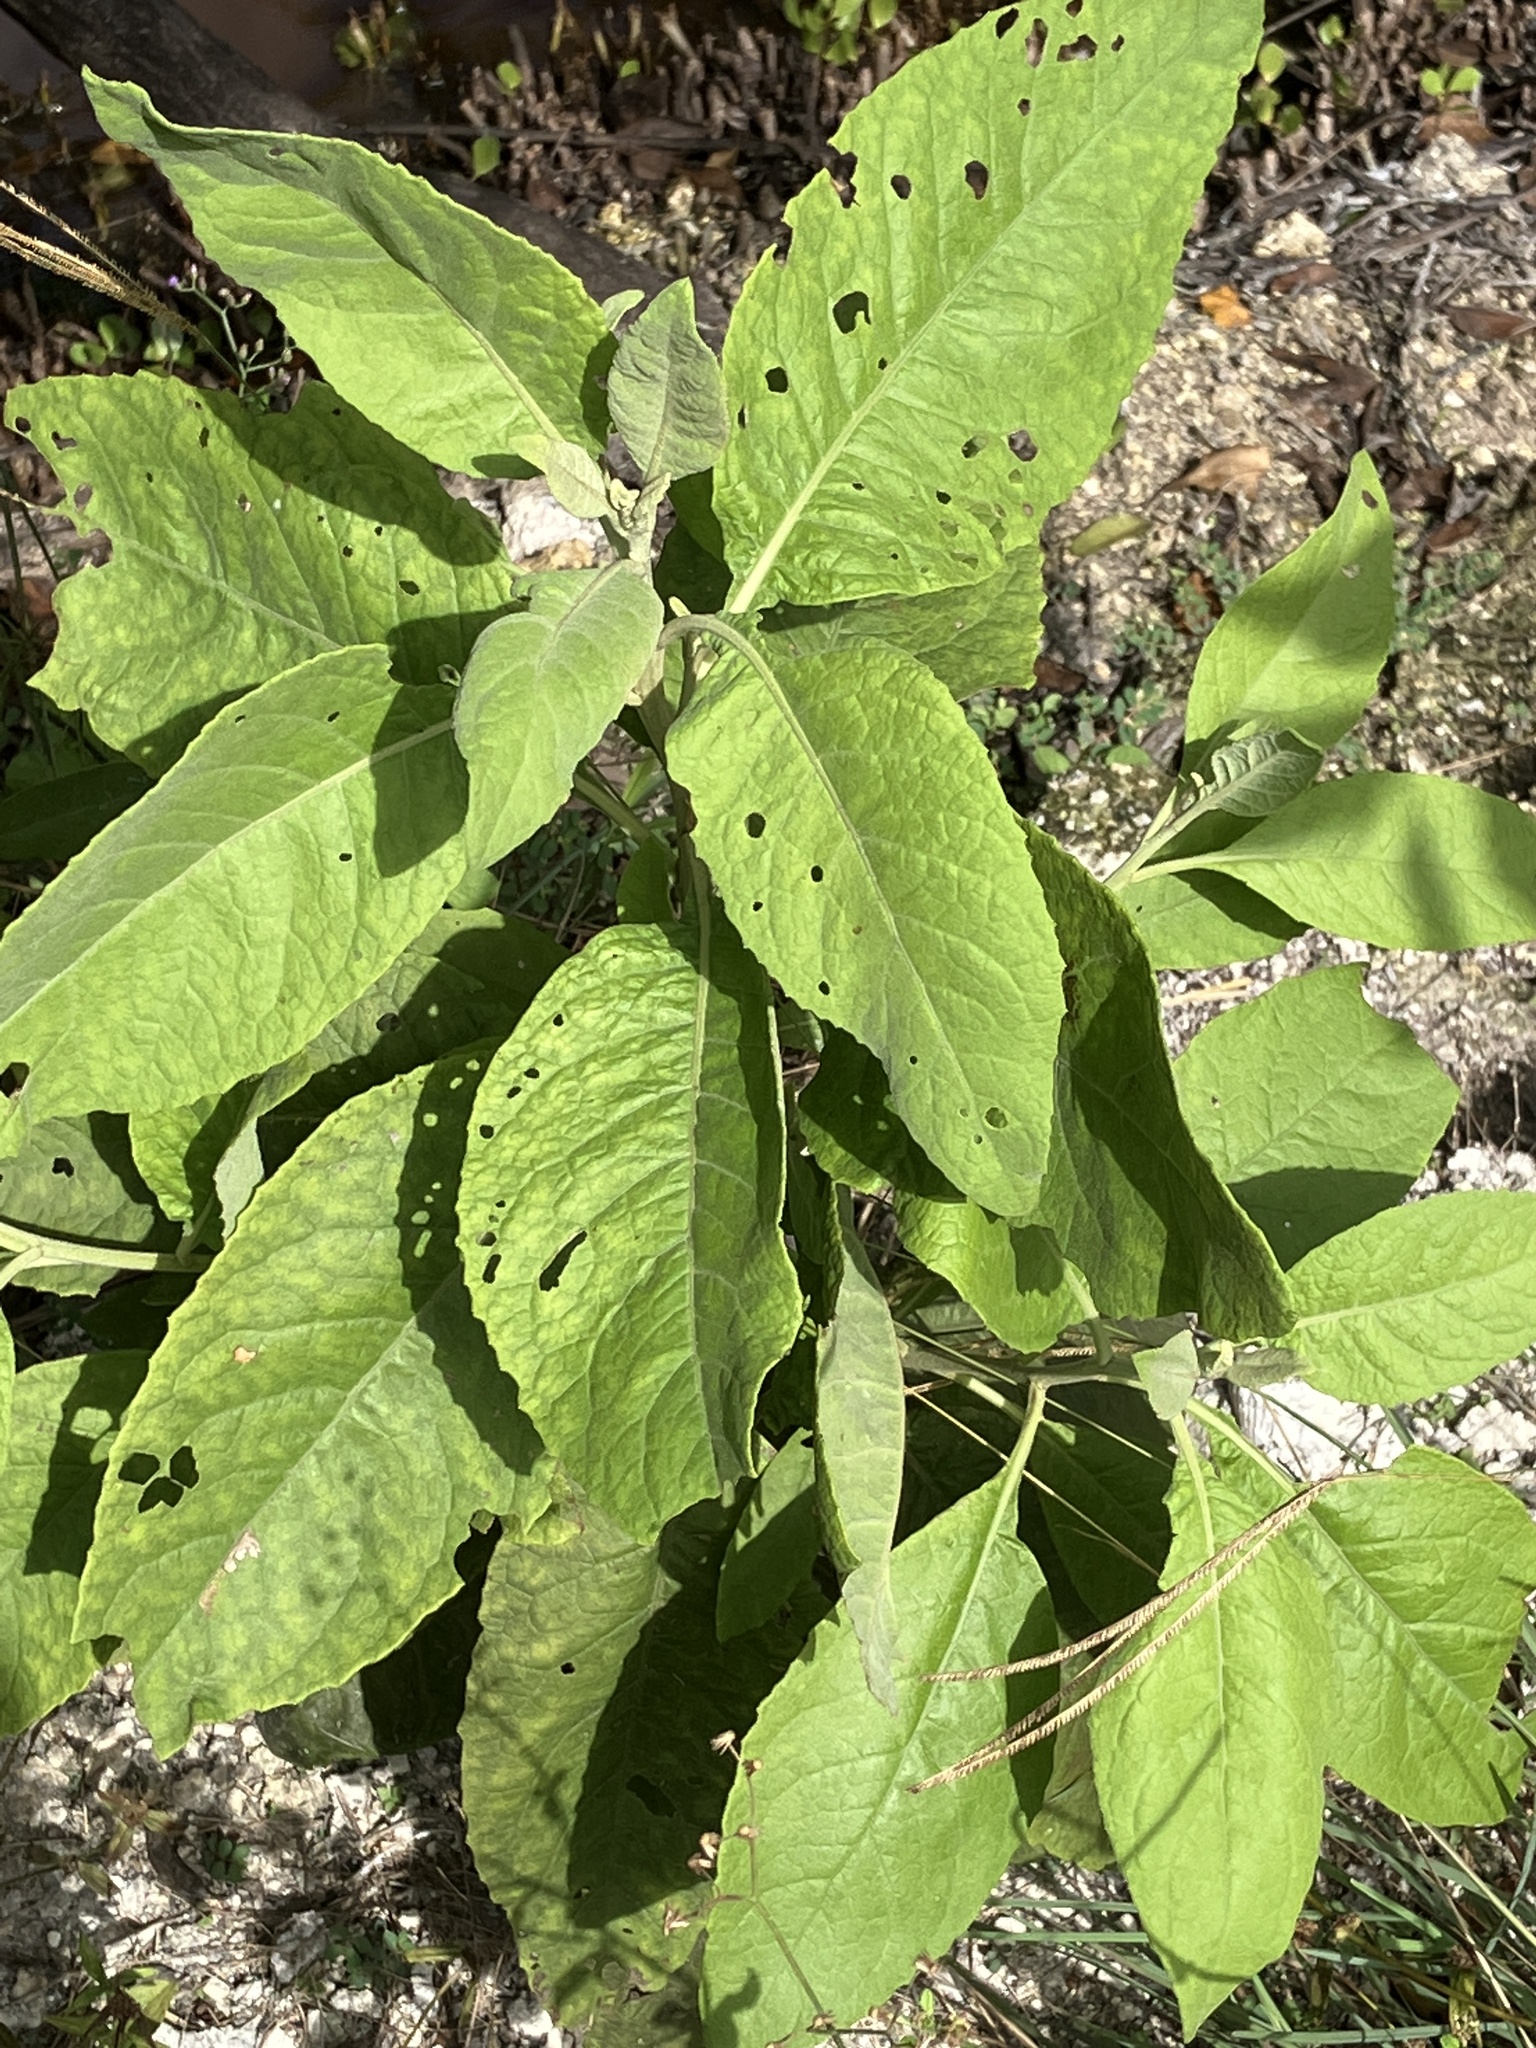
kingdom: Plantae
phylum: Tracheophyta
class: Magnoliopsida
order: Asterales
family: Asteraceae
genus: Pluchea
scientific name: Pluchea carolinensis
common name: Marsh fleabane
